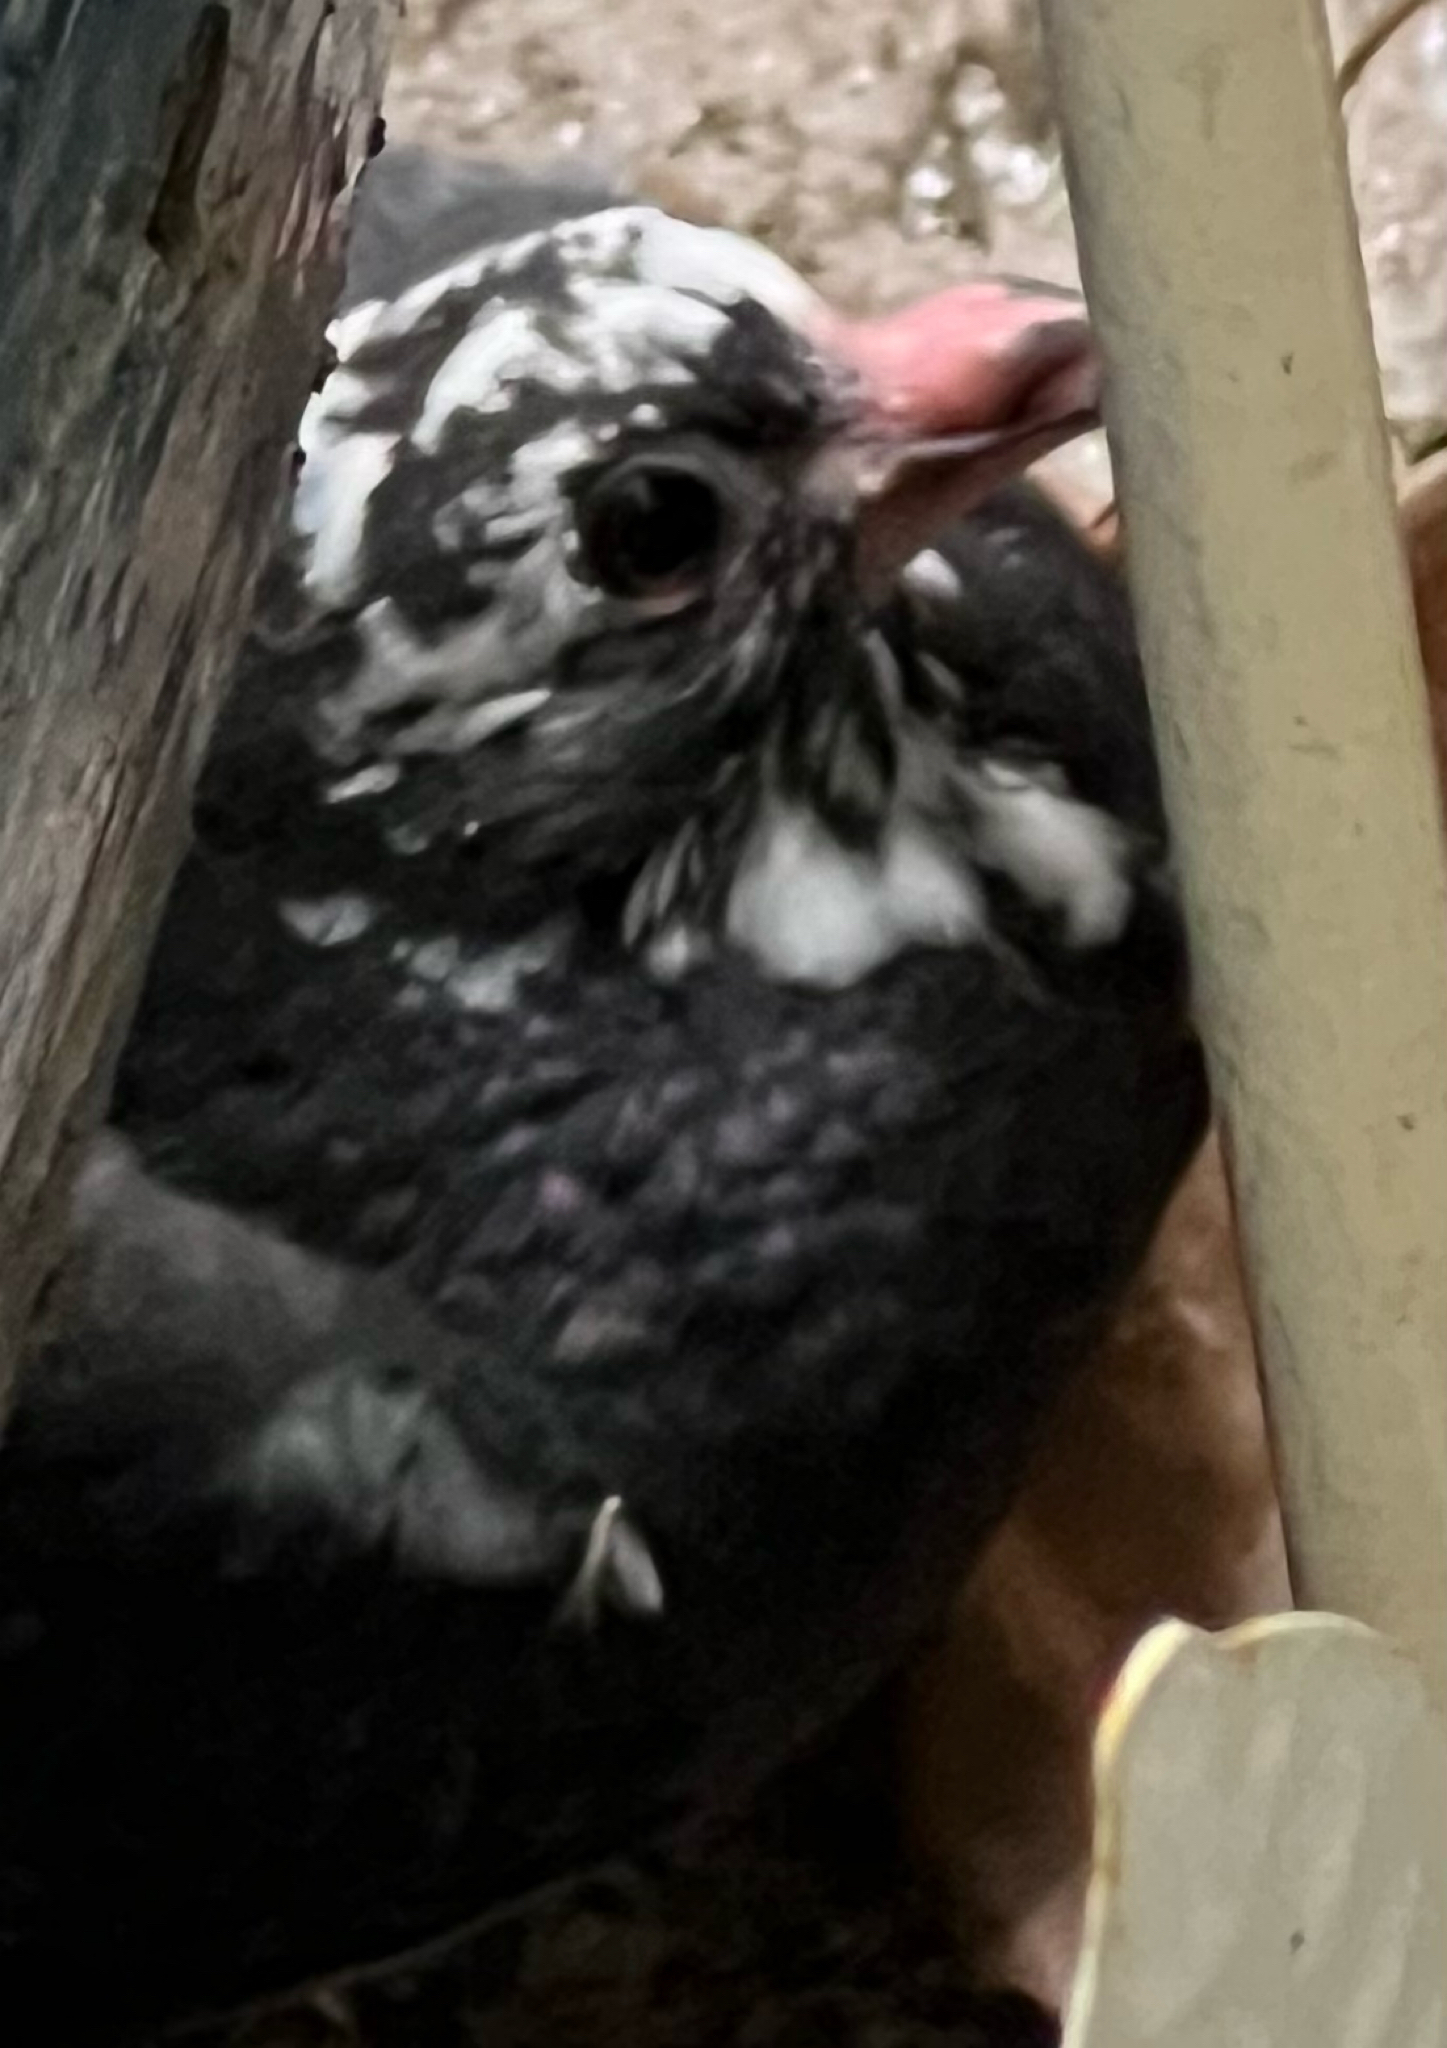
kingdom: Animalia
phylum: Chordata
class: Aves
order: Columbiformes
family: Columbidae
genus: Columba
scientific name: Columba livia
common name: Rock pigeon
